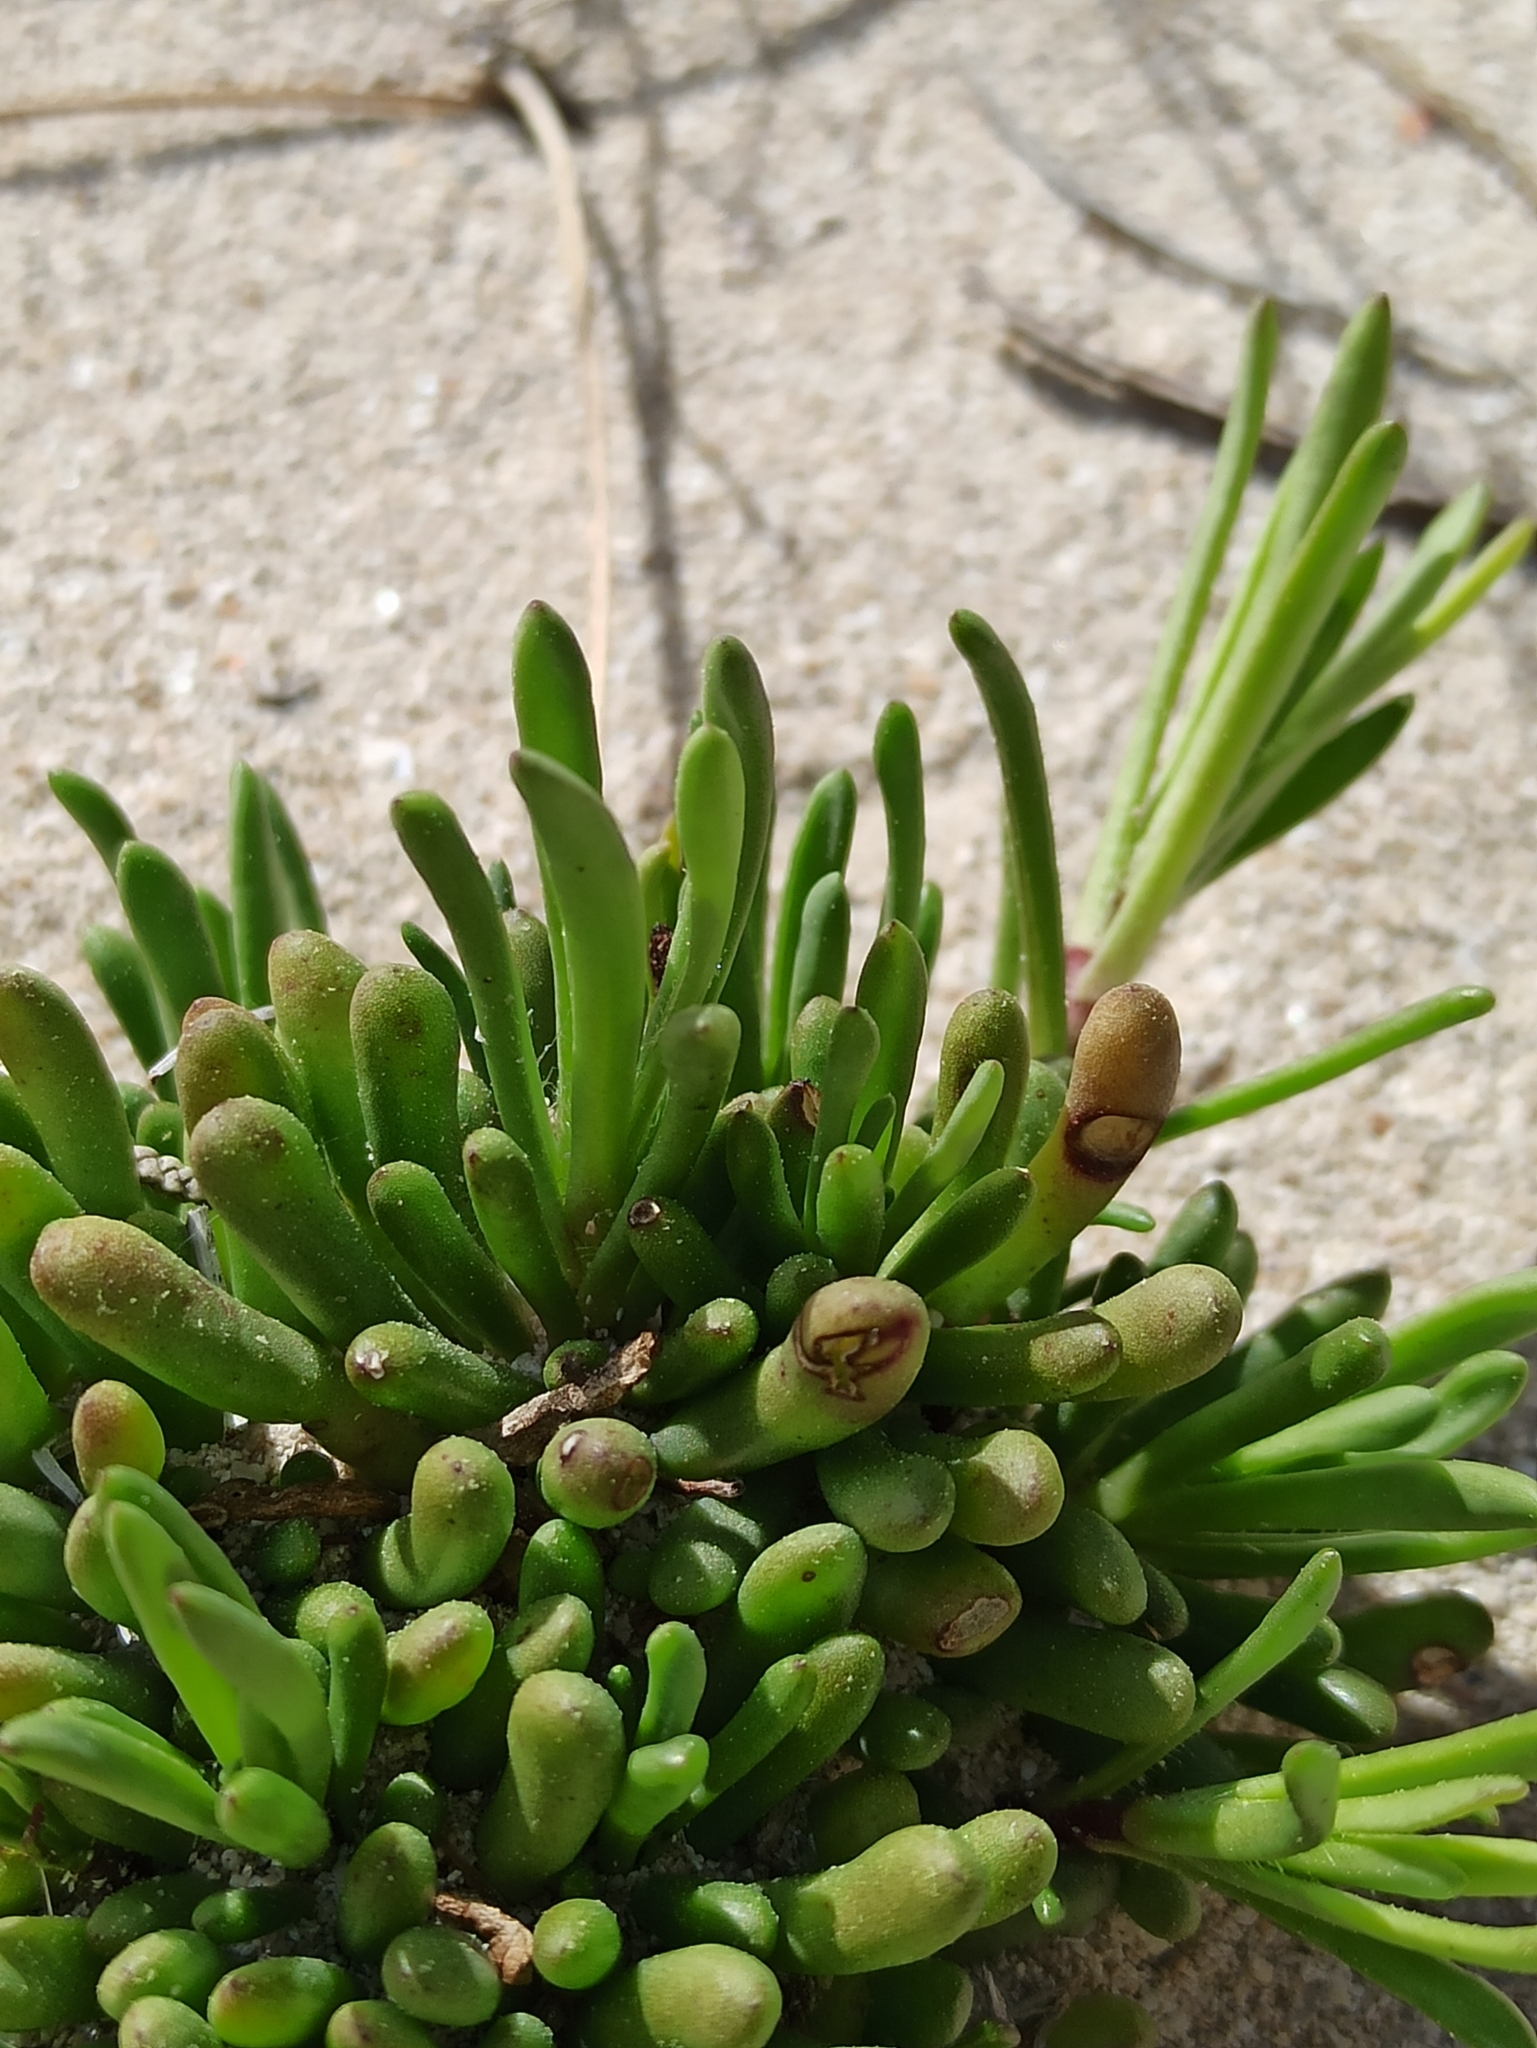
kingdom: Plantae
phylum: Tracheophyta
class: Magnoliopsida
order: Asterales
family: Asteraceae
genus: Limbarda
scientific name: Limbarda crithmoides
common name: Golden samphire
